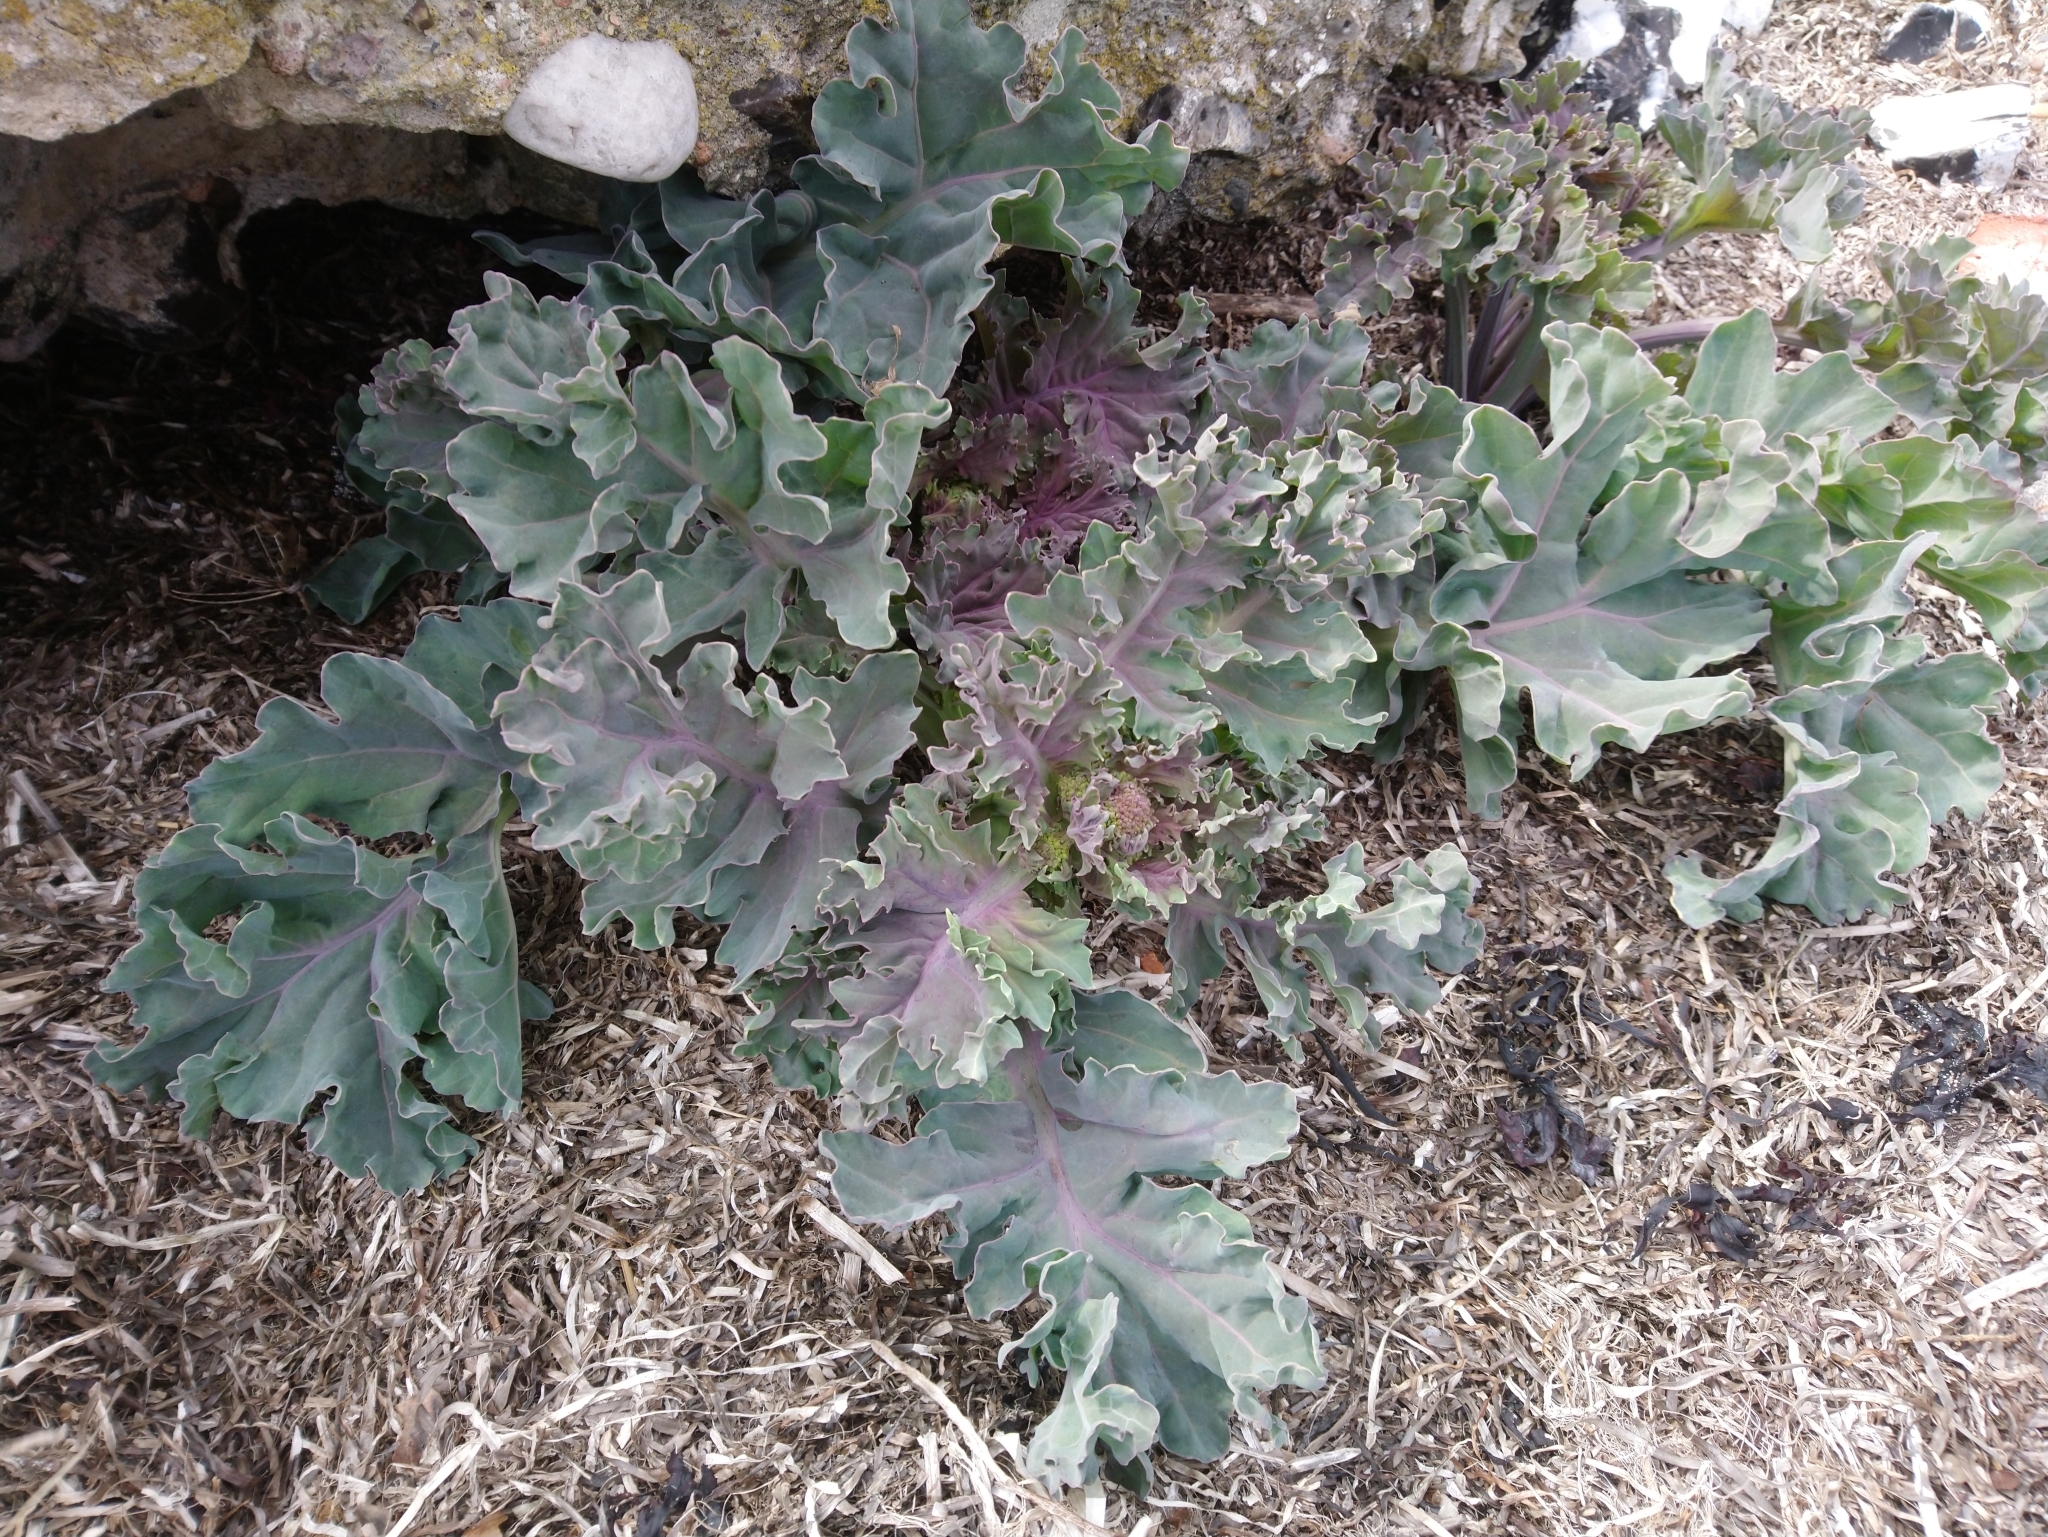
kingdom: Plantae
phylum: Tracheophyta
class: Magnoliopsida
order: Brassicales
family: Brassicaceae
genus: Crambe
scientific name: Crambe maritima
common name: Sea-kale
